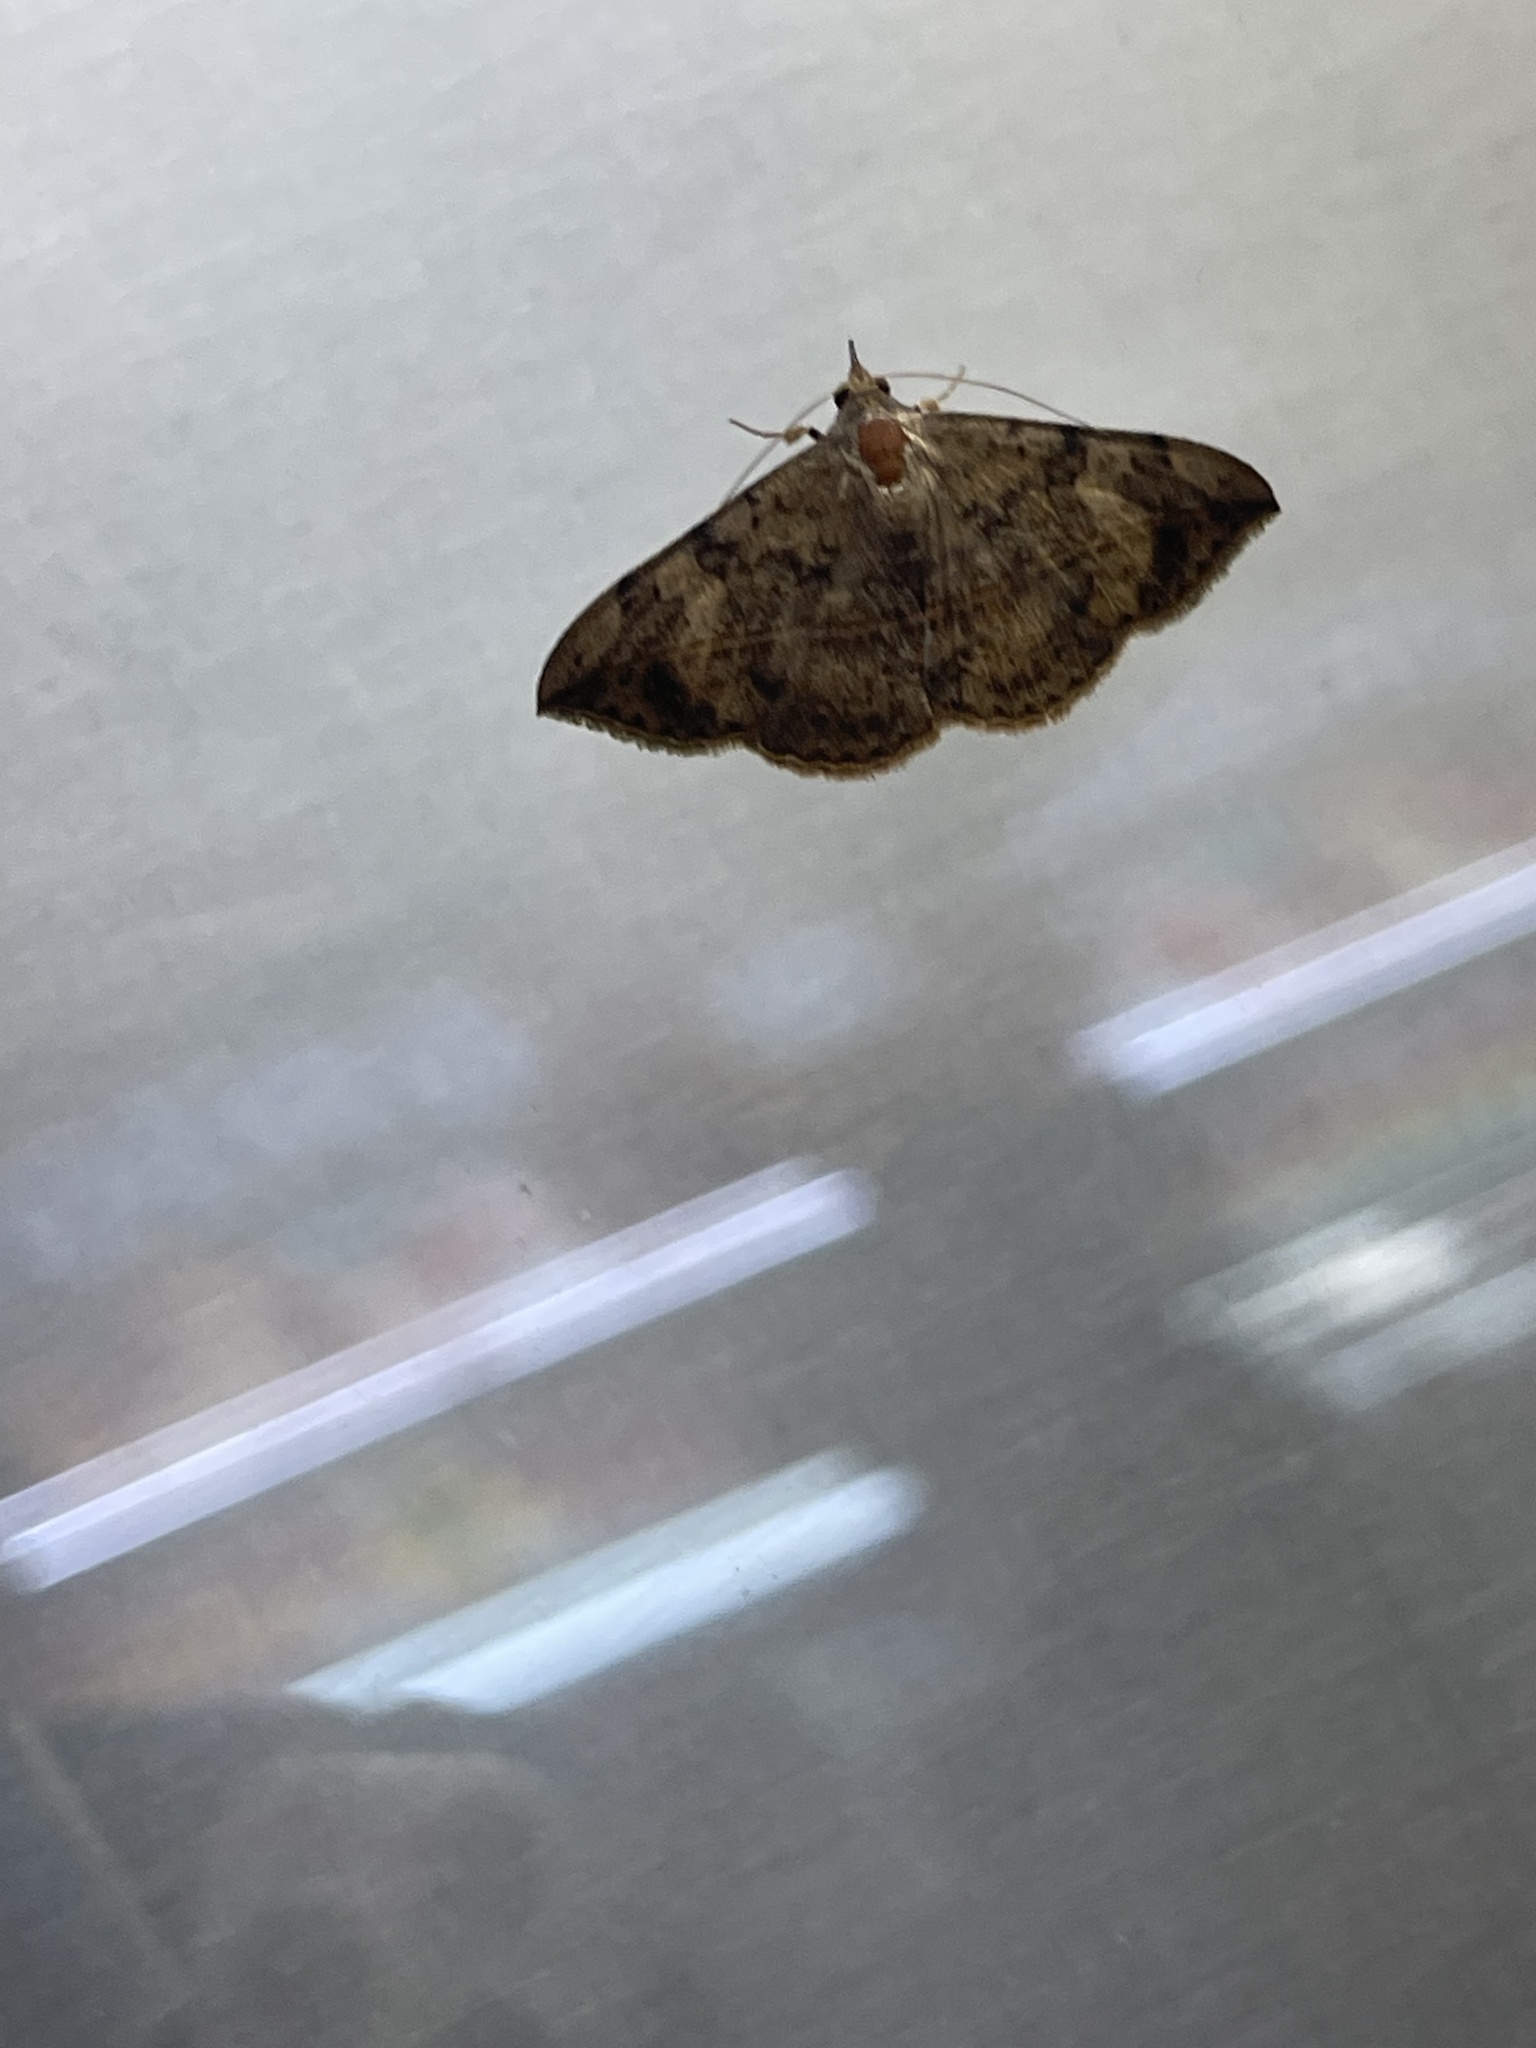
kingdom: Animalia
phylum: Arthropoda
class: Insecta
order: Lepidoptera
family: Erebidae
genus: Anticarsia
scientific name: Anticarsia gemmatalis
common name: Cutworm moth
